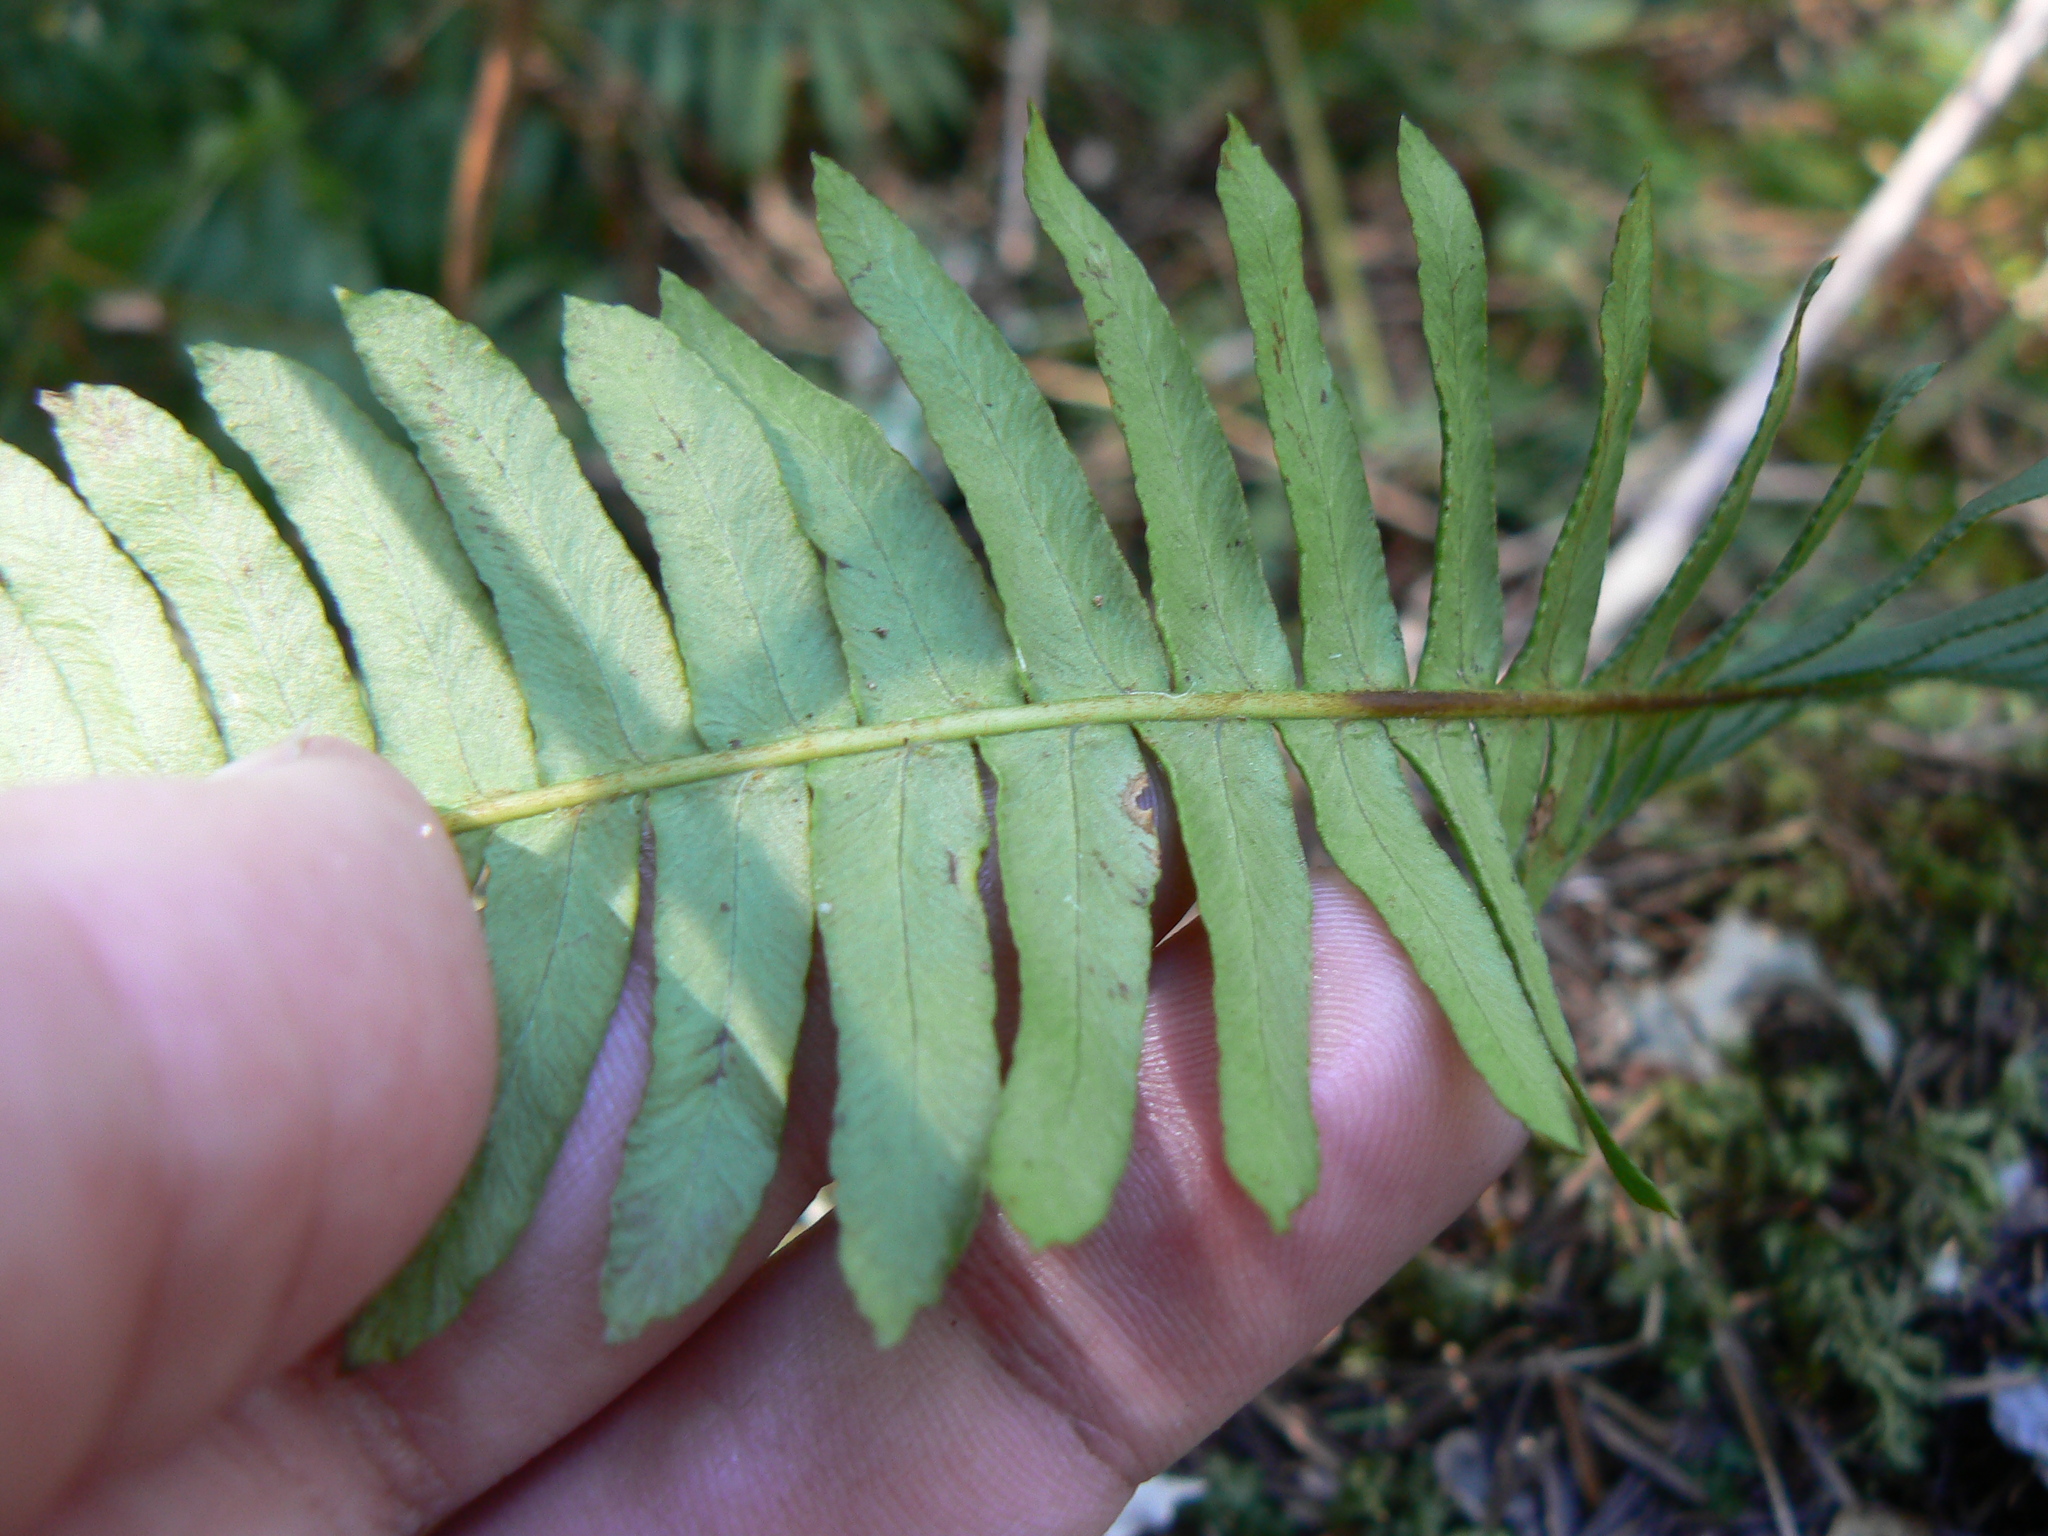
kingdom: Plantae
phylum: Tracheophyta
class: Polypodiopsida
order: Polypodiales
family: Blechnaceae
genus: Struthiopteris
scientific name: Struthiopteris spicant
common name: Deer fern
